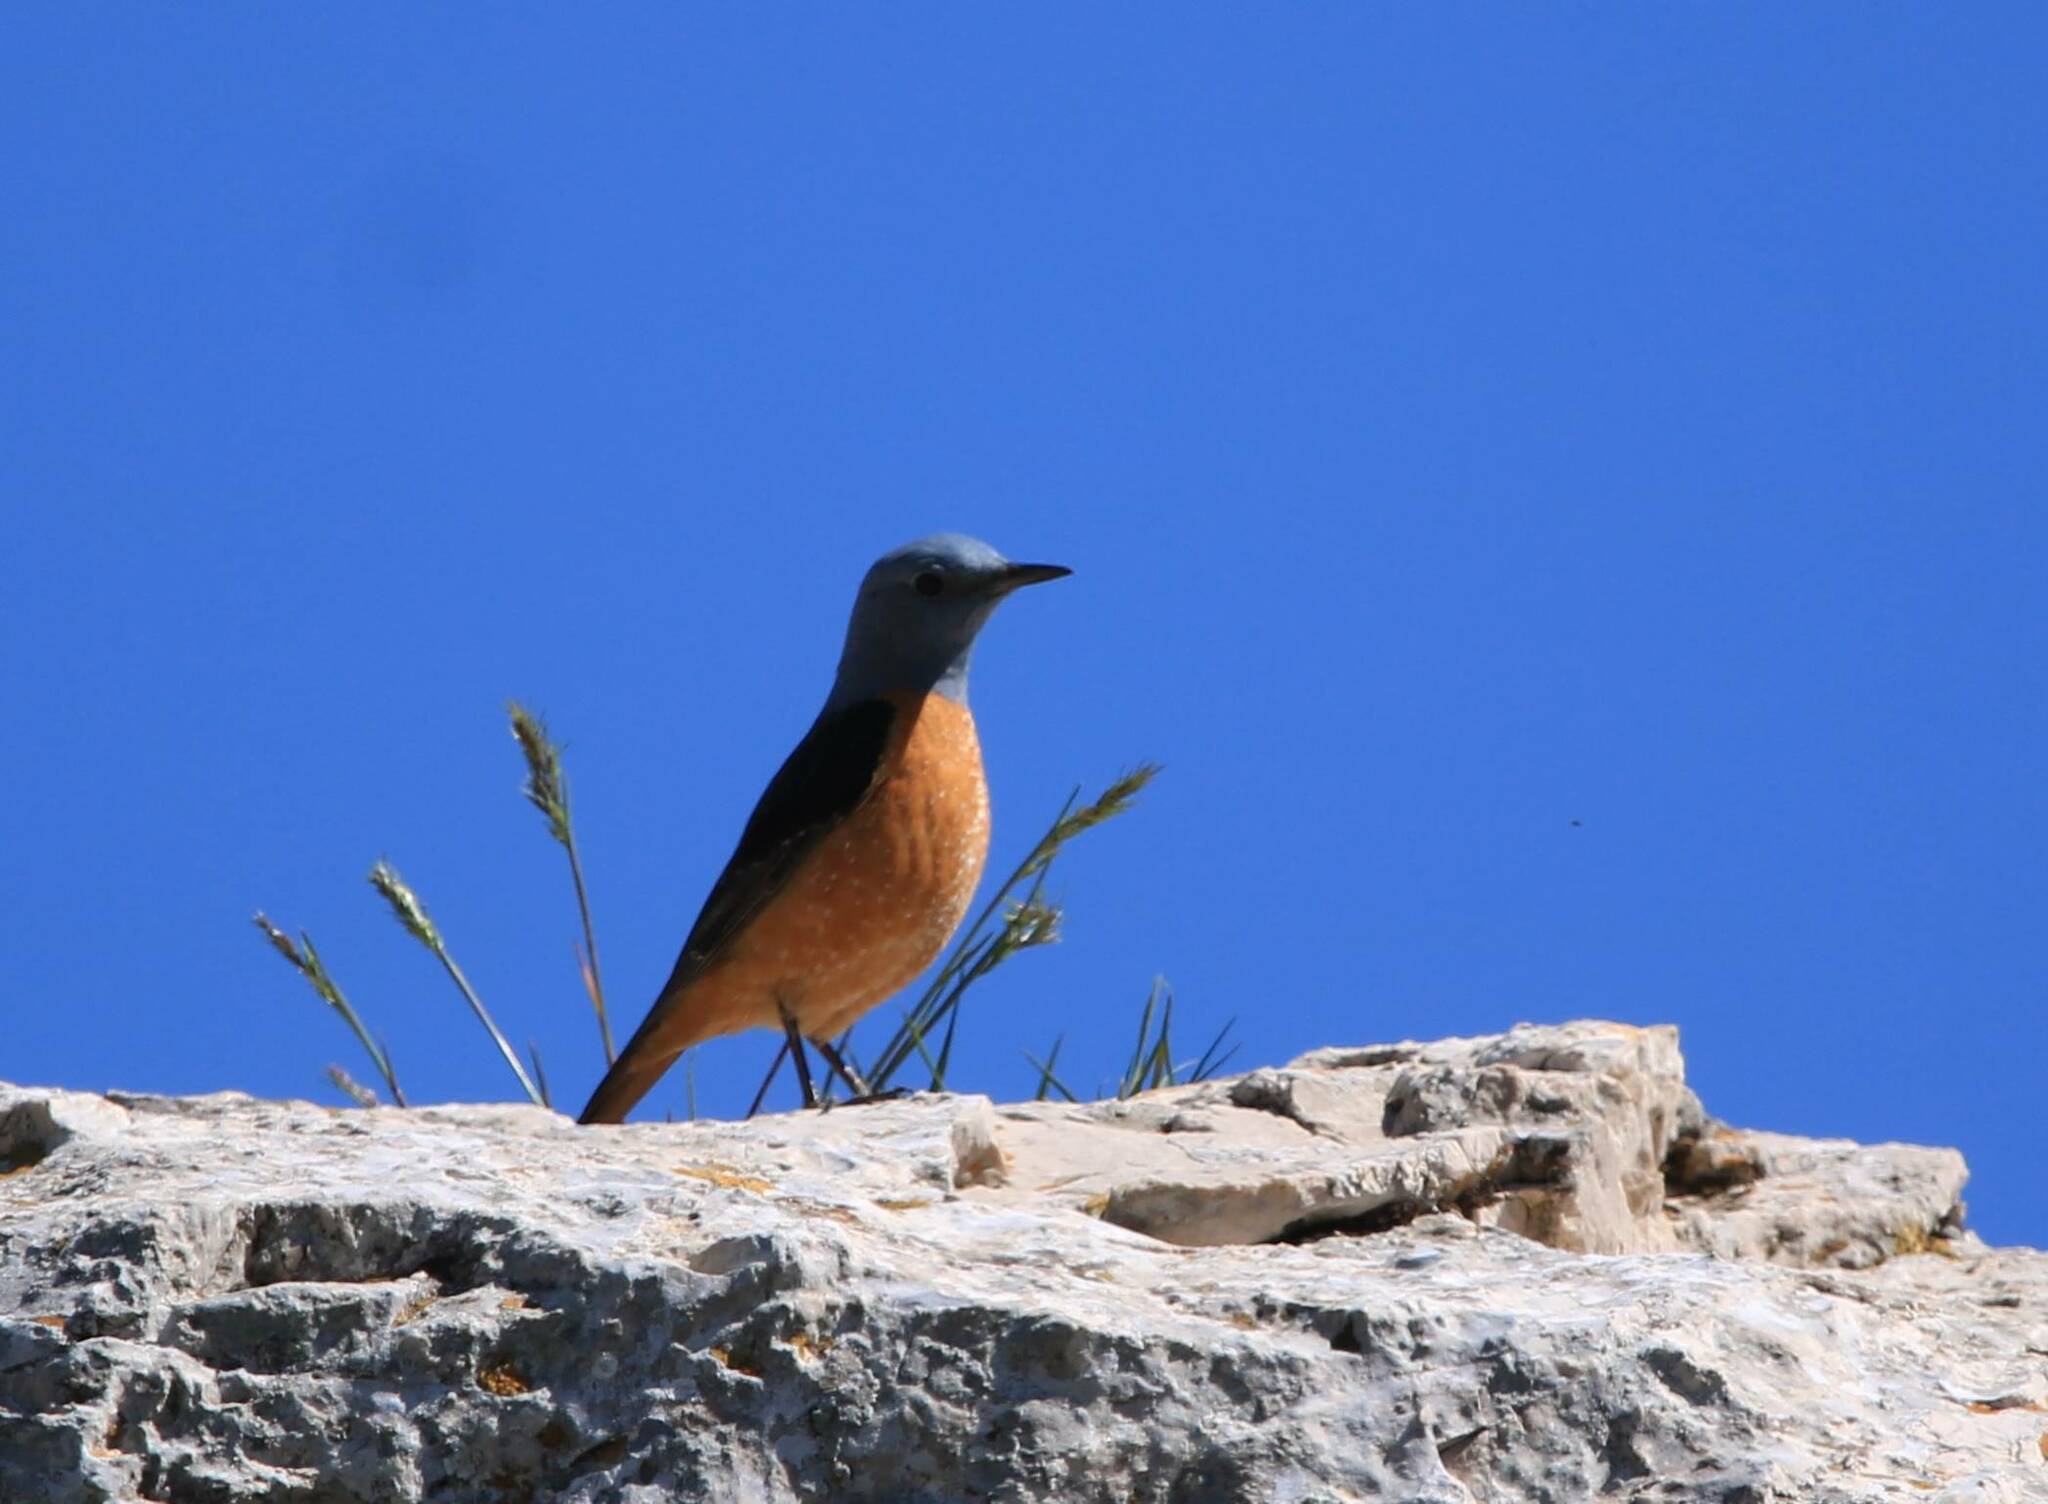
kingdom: Animalia
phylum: Chordata
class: Aves
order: Passeriformes
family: Muscicapidae
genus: Monticola
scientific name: Monticola saxatilis
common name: Rufous-tailed rock thrush
